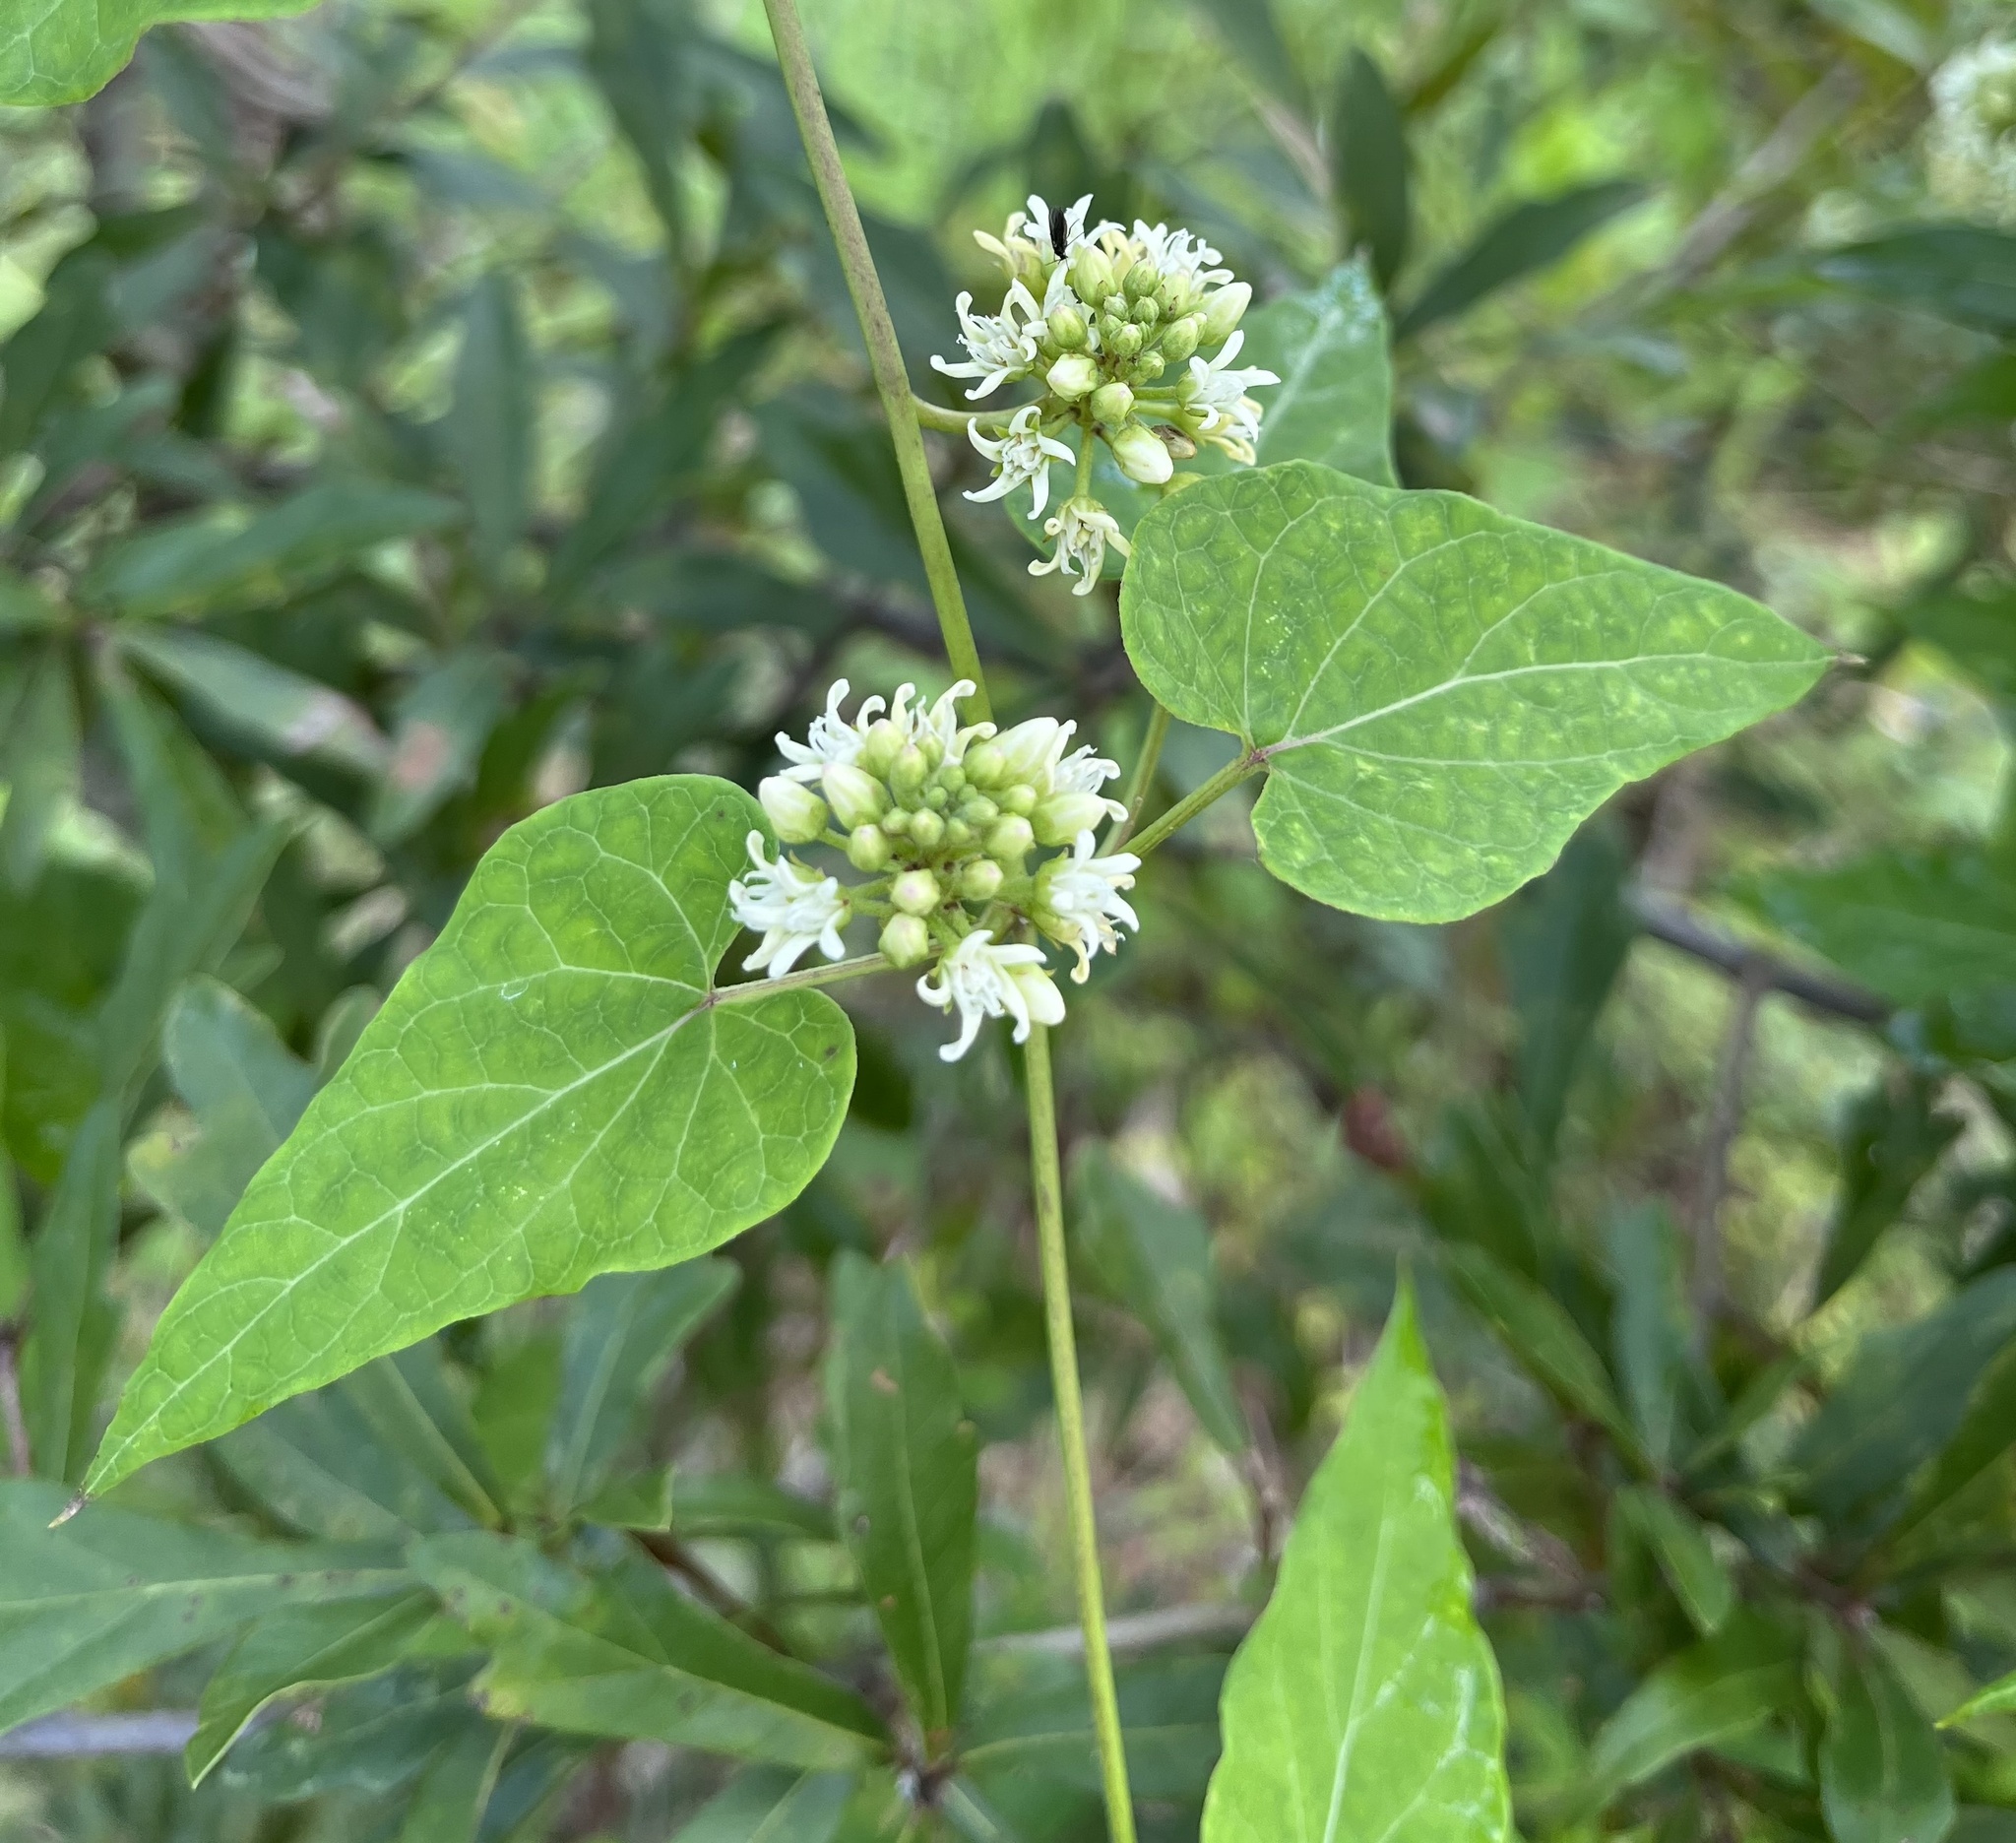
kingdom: Plantae
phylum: Tracheophyta
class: Magnoliopsida
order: Gentianales
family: Apocynaceae
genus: Cynanchum
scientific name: Cynanchum laeve
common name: Sandvine
